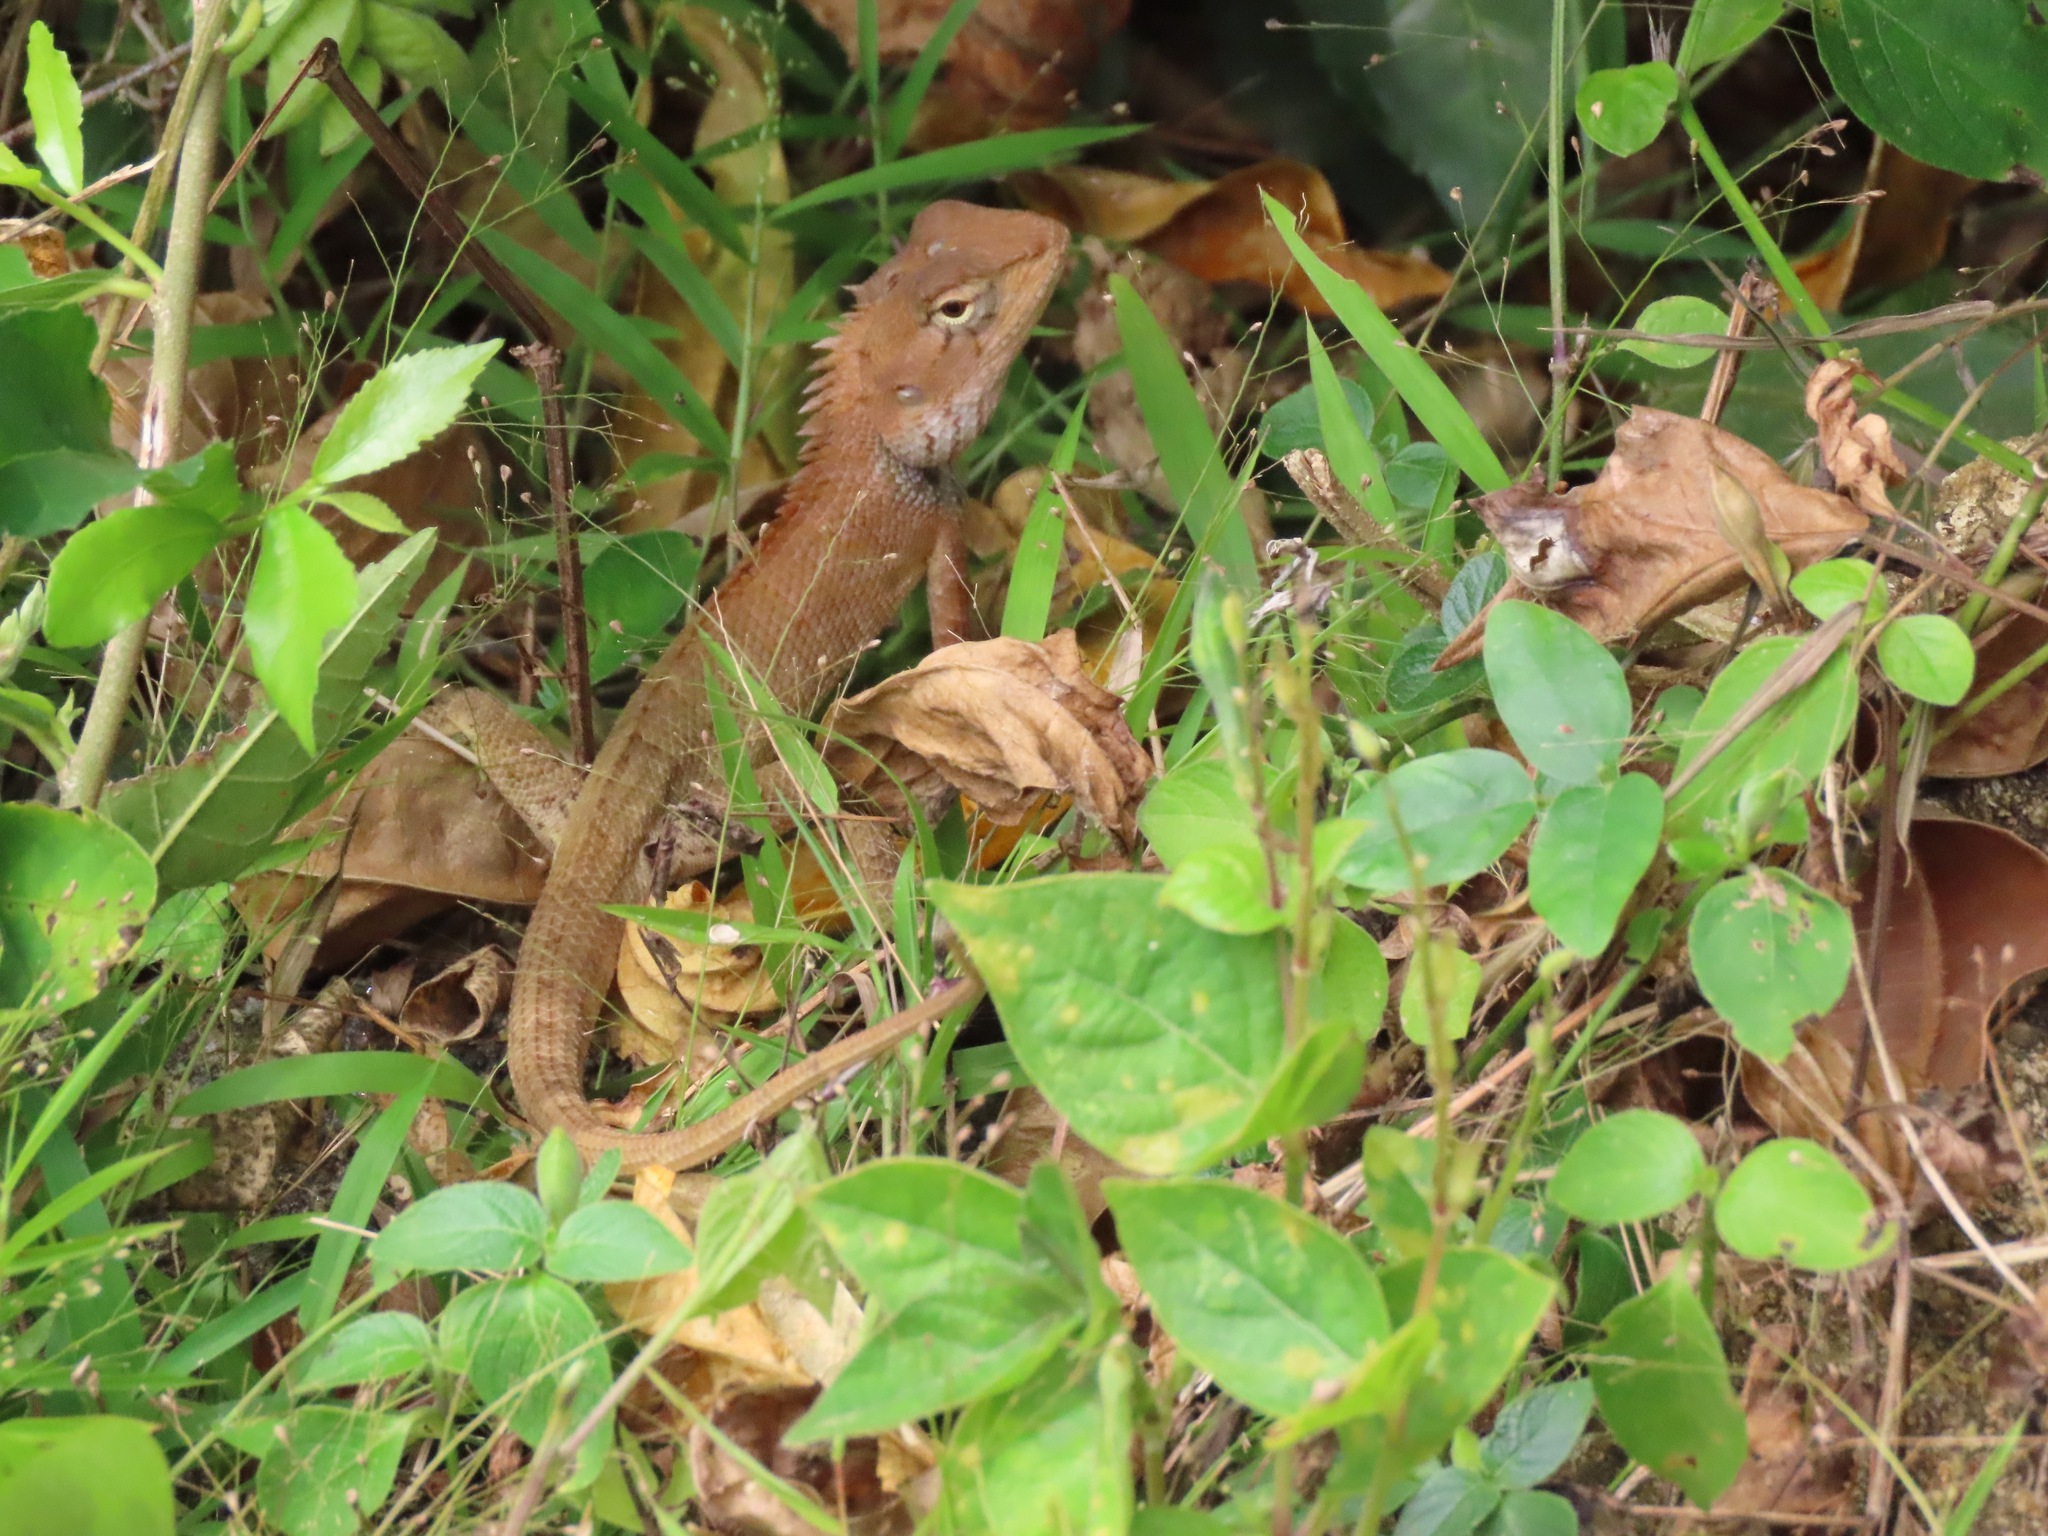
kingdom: Animalia
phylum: Chordata
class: Squamata
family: Agamidae
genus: Calotes
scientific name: Calotes versicolor
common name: Oriental garden lizard
